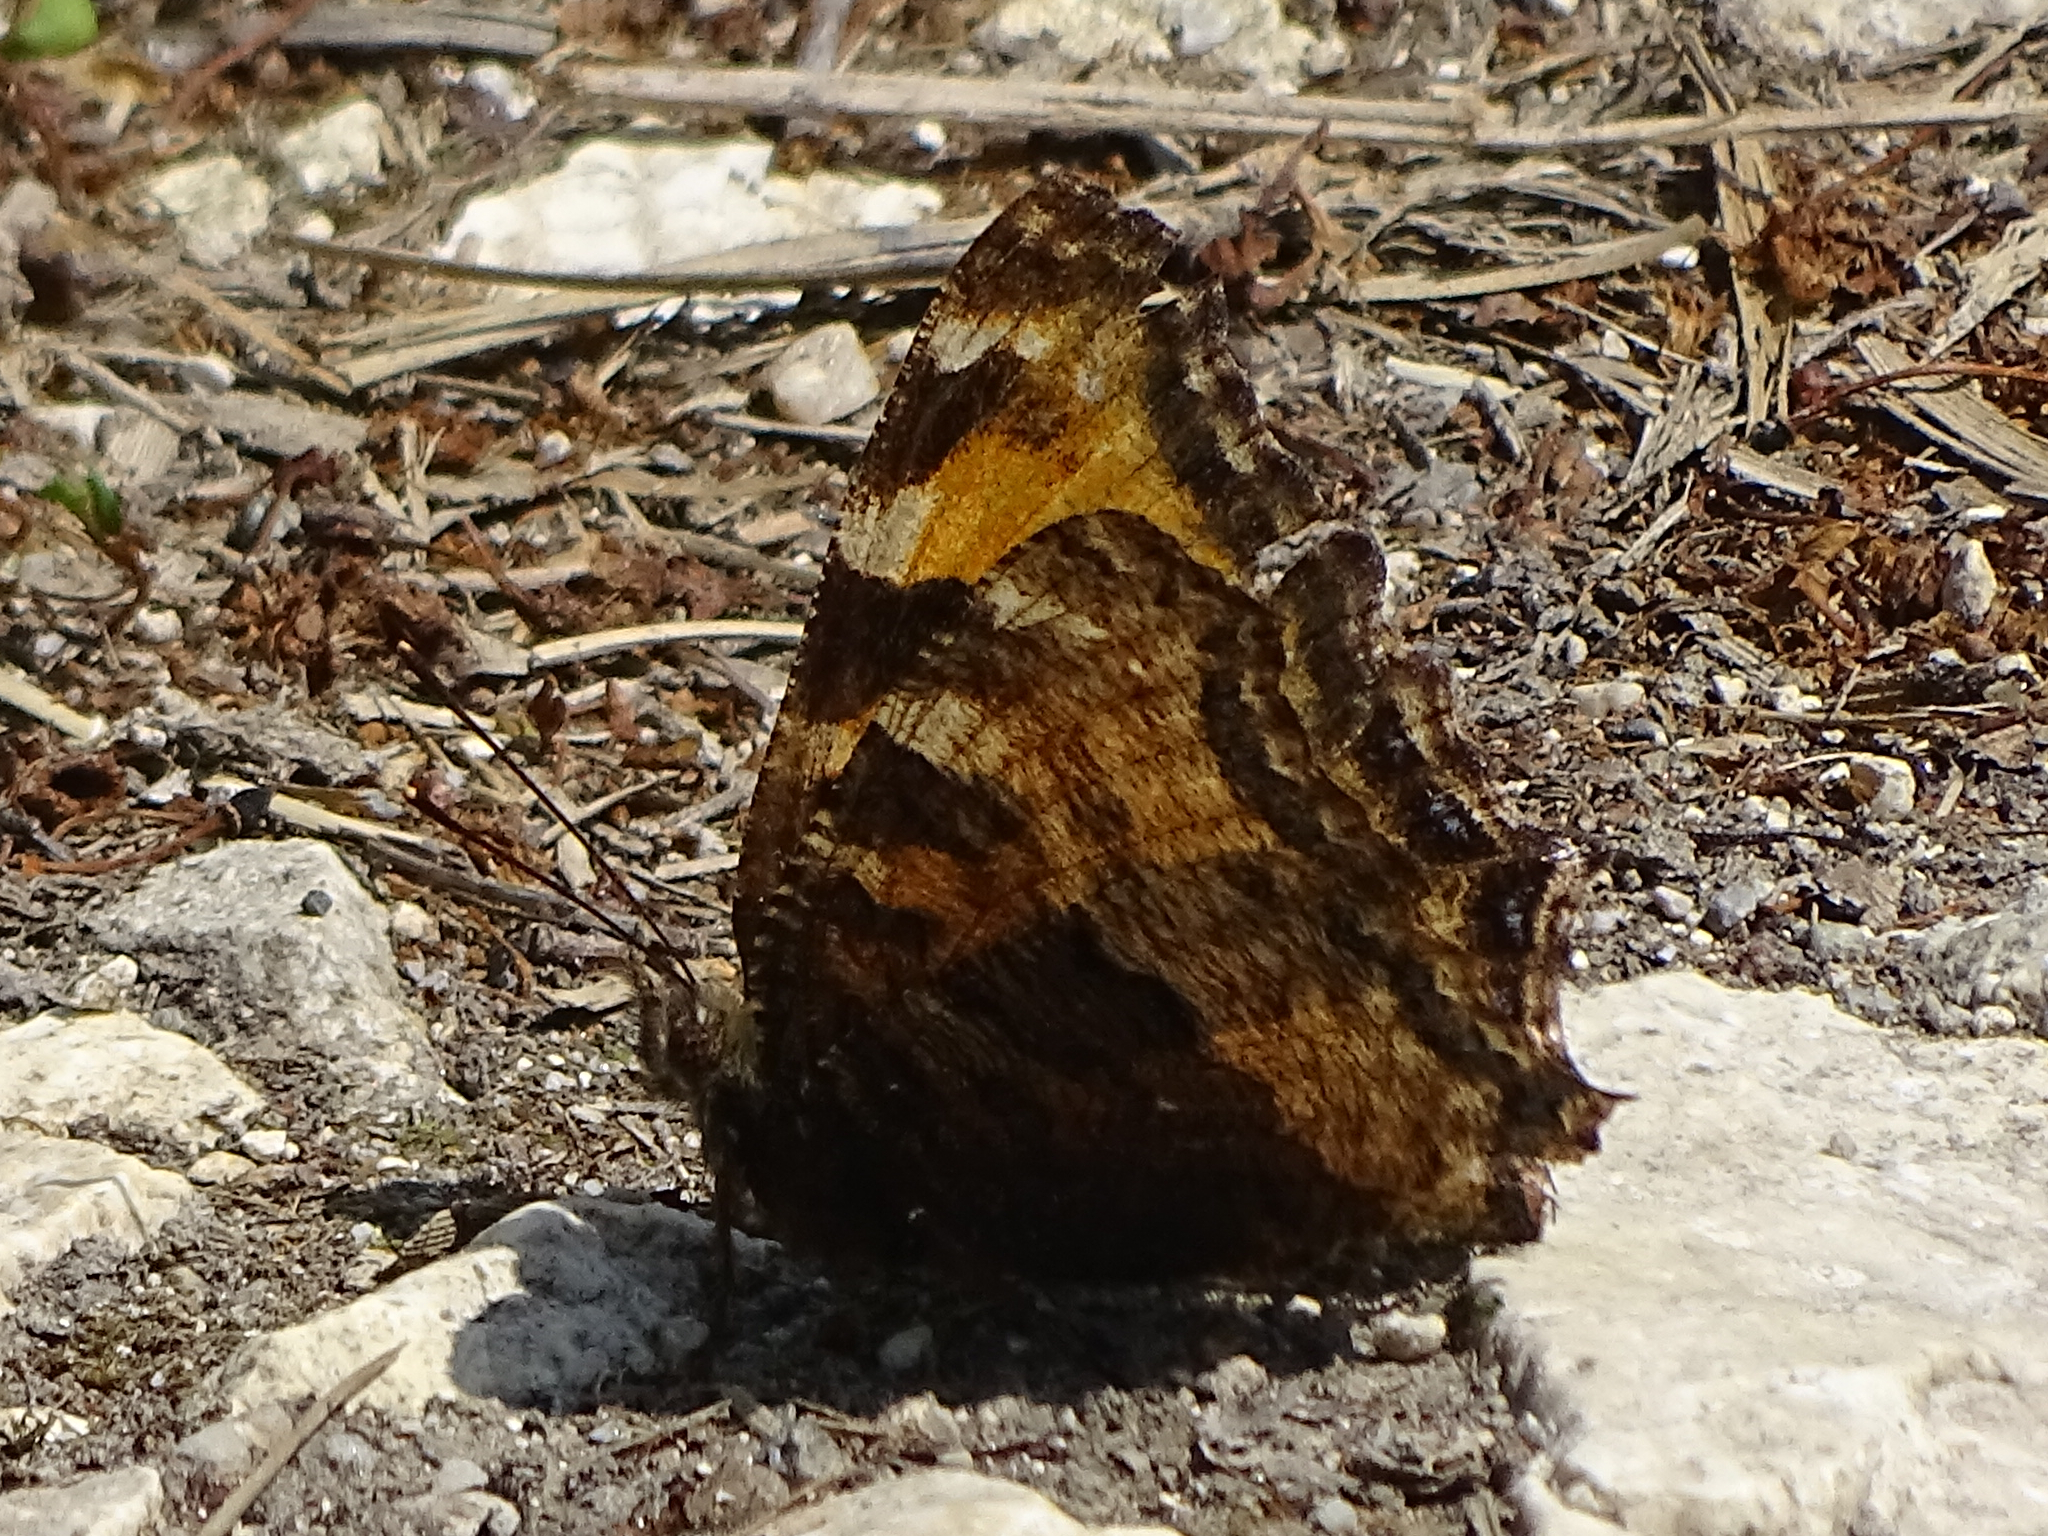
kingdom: Animalia
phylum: Arthropoda
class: Insecta
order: Lepidoptera
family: Nymphalidae
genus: Nymphalis
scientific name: Nymphalis polychloros
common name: Large tortoiseshell
